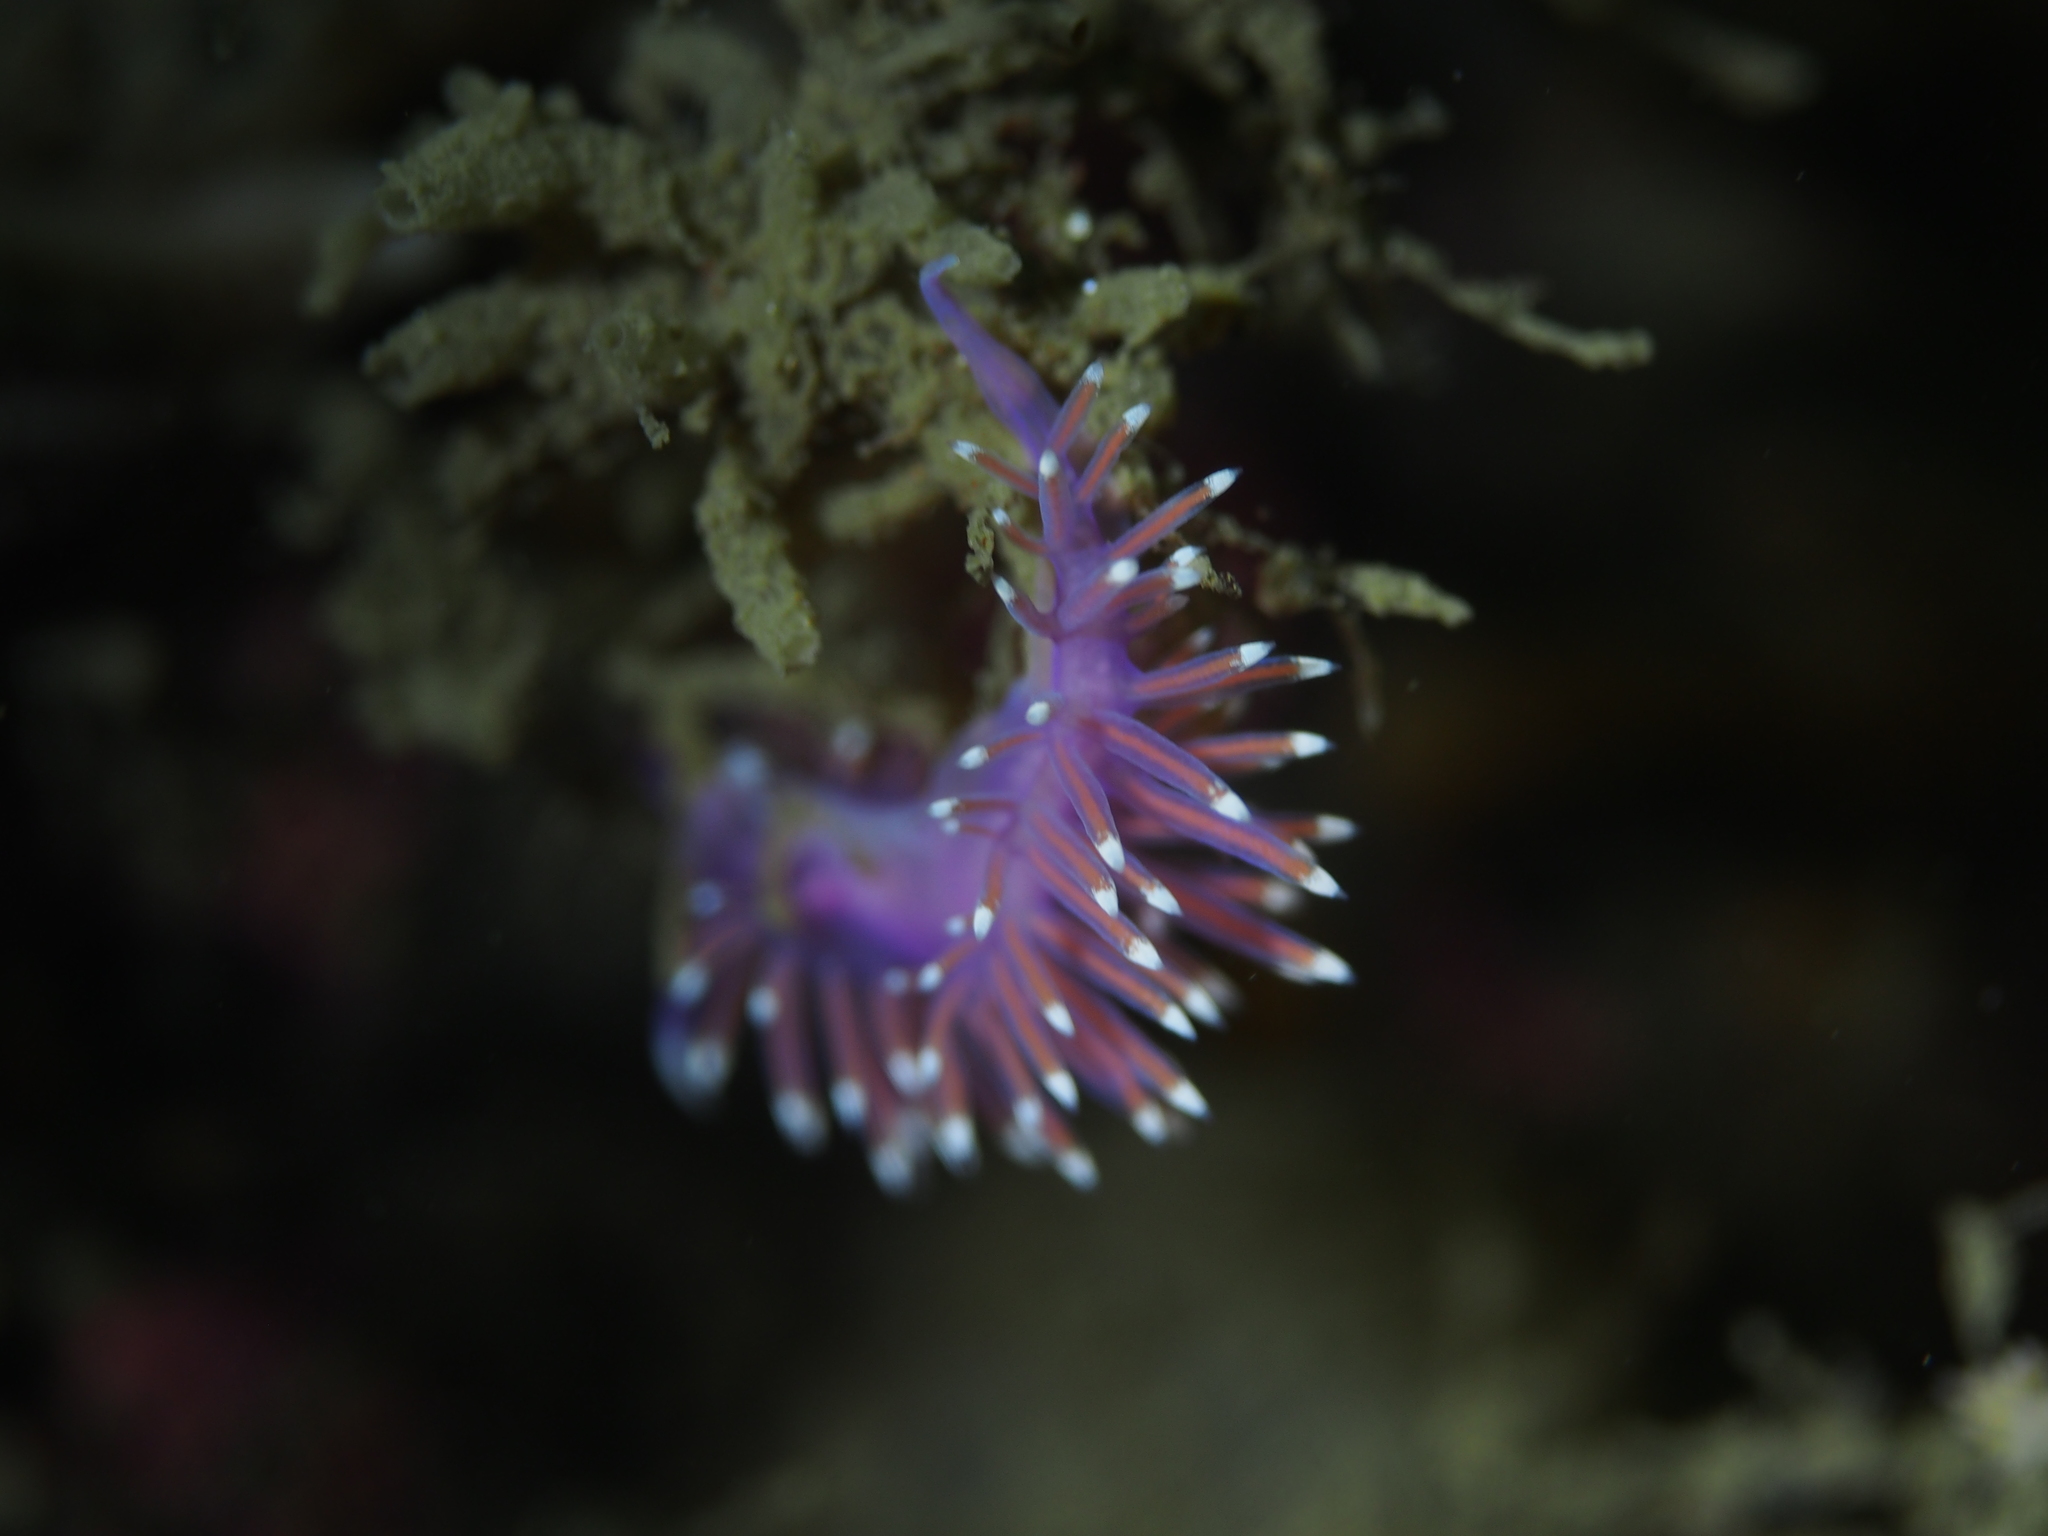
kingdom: Animalia
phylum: Mollusca
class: Gastropoda
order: Nudibranchia
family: Flabellinidae
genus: Edmundsella
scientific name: Edmundsella pedata
